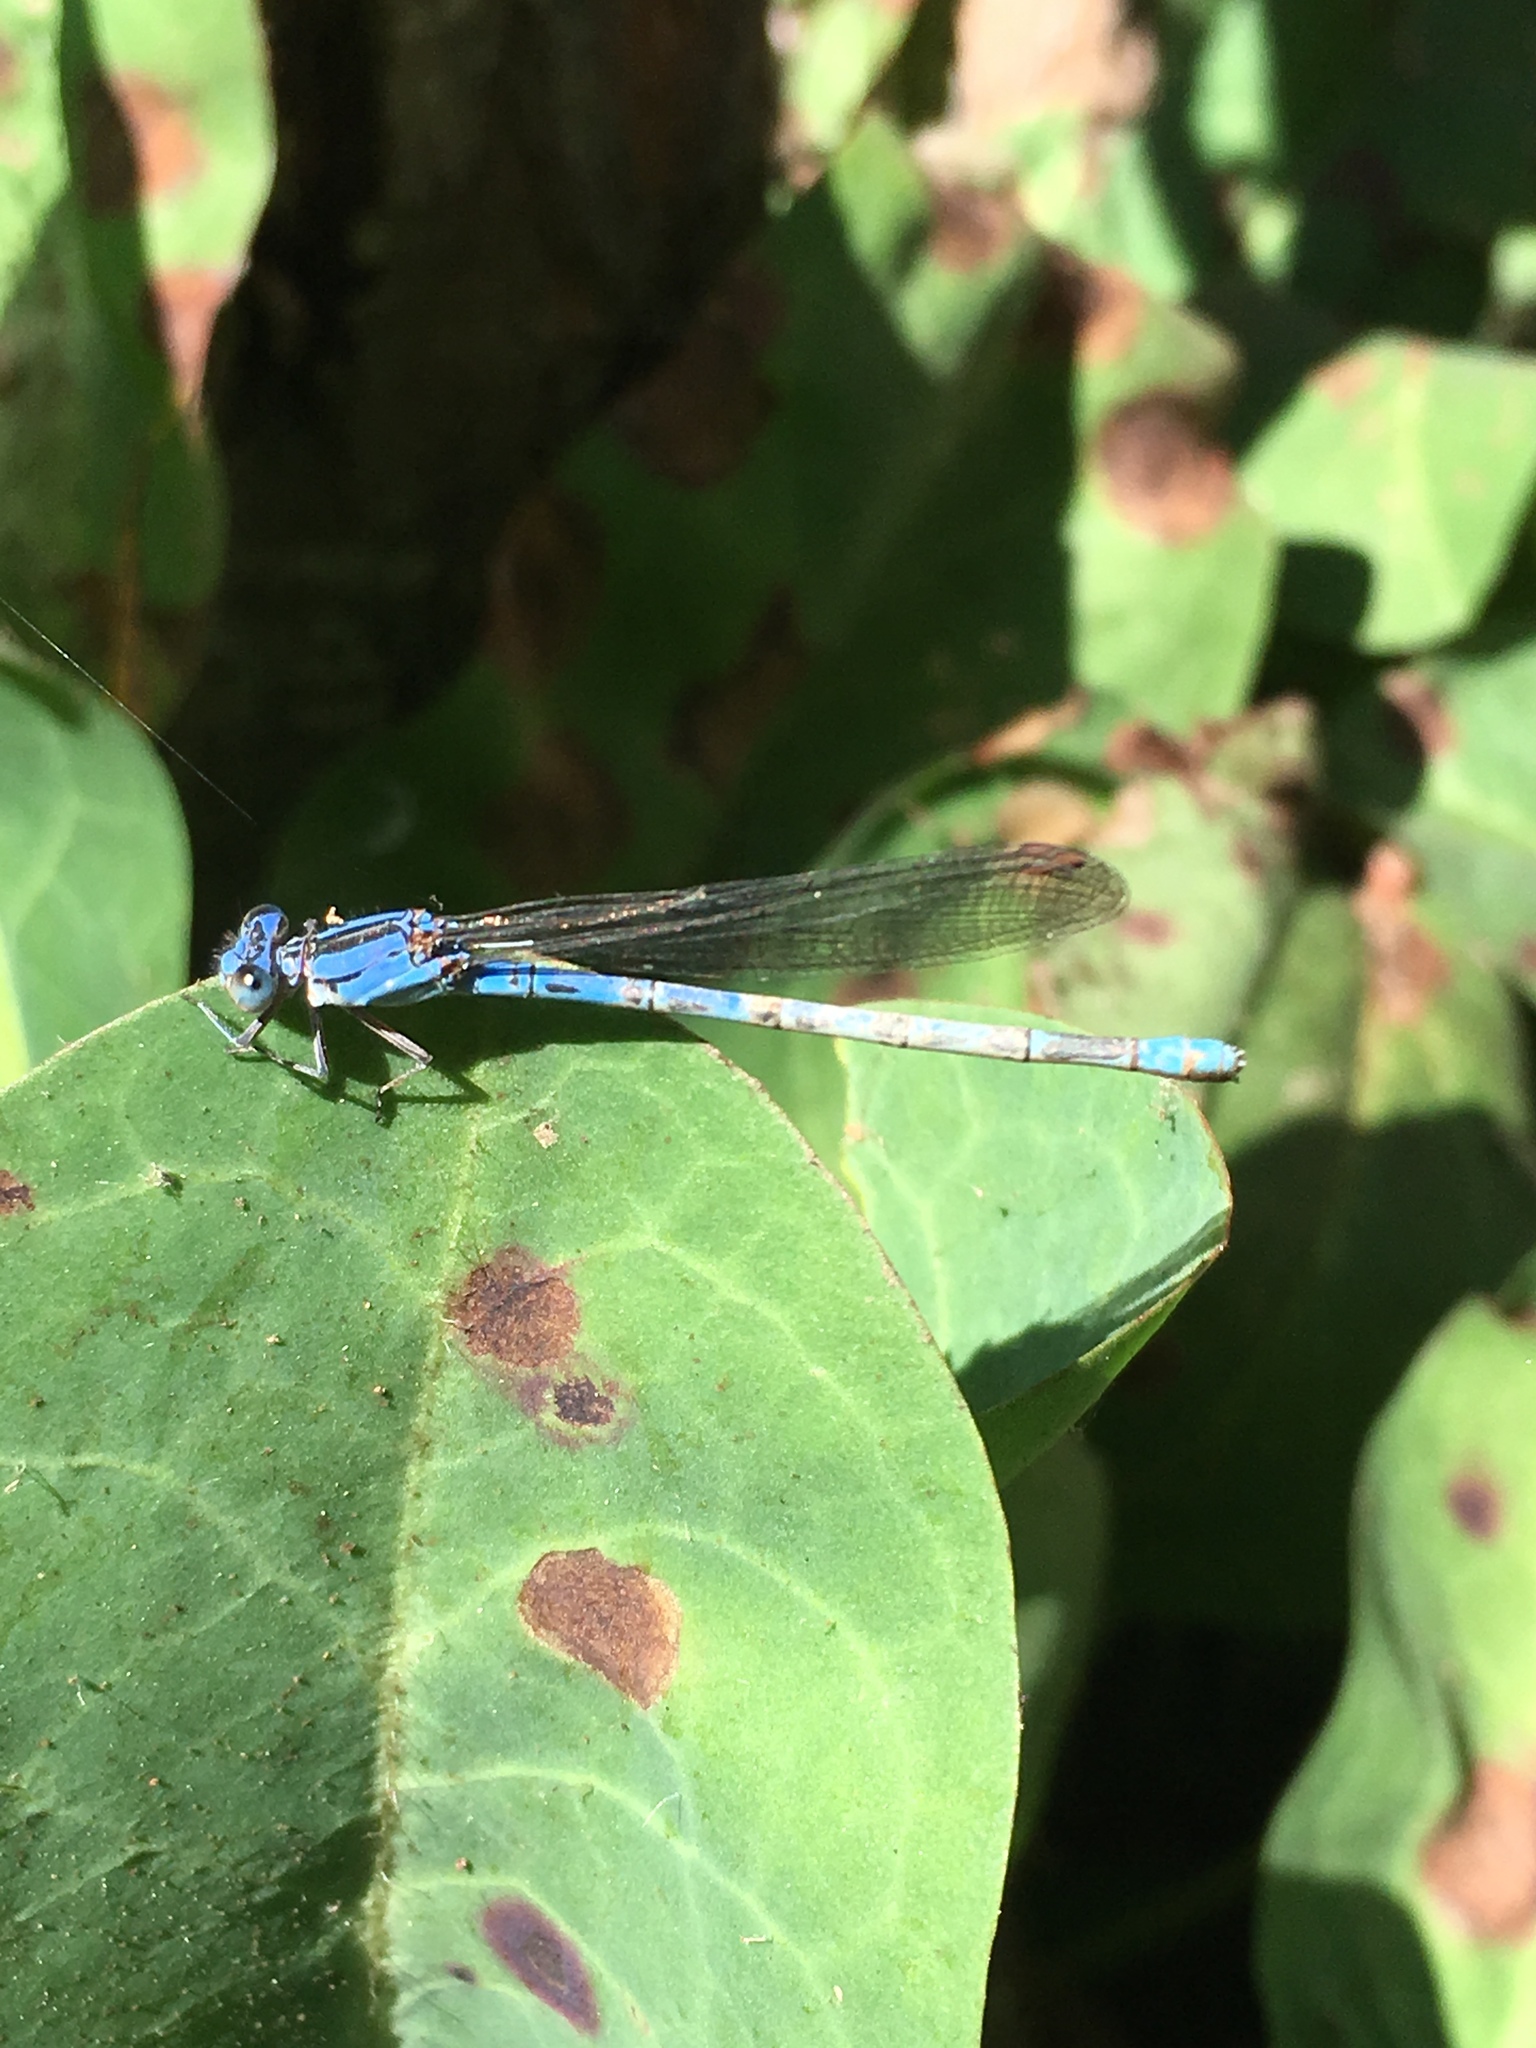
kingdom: Animalia
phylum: Arthropoda
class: Insecta
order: Odonata
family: Coenagrionidae
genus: Argia
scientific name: Argia vivida
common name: Vivid dancer
